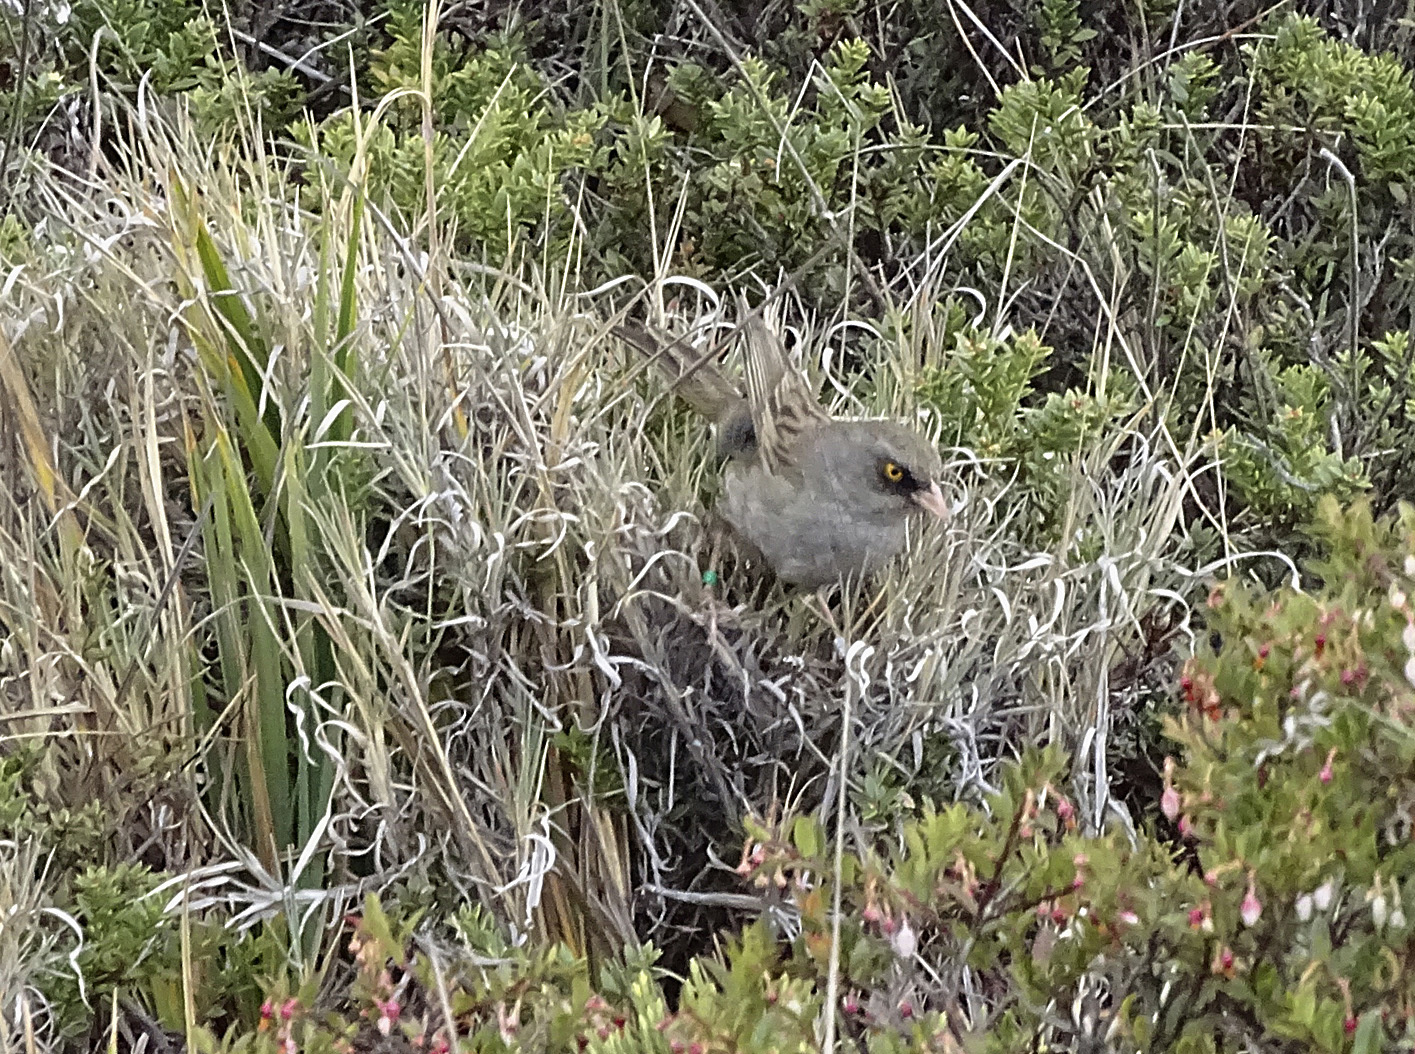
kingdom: Animalia
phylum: Chordata
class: Aves
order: Passeriformes
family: Passerellidae
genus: Junco
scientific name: Junco vulcani
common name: Volcano junco
